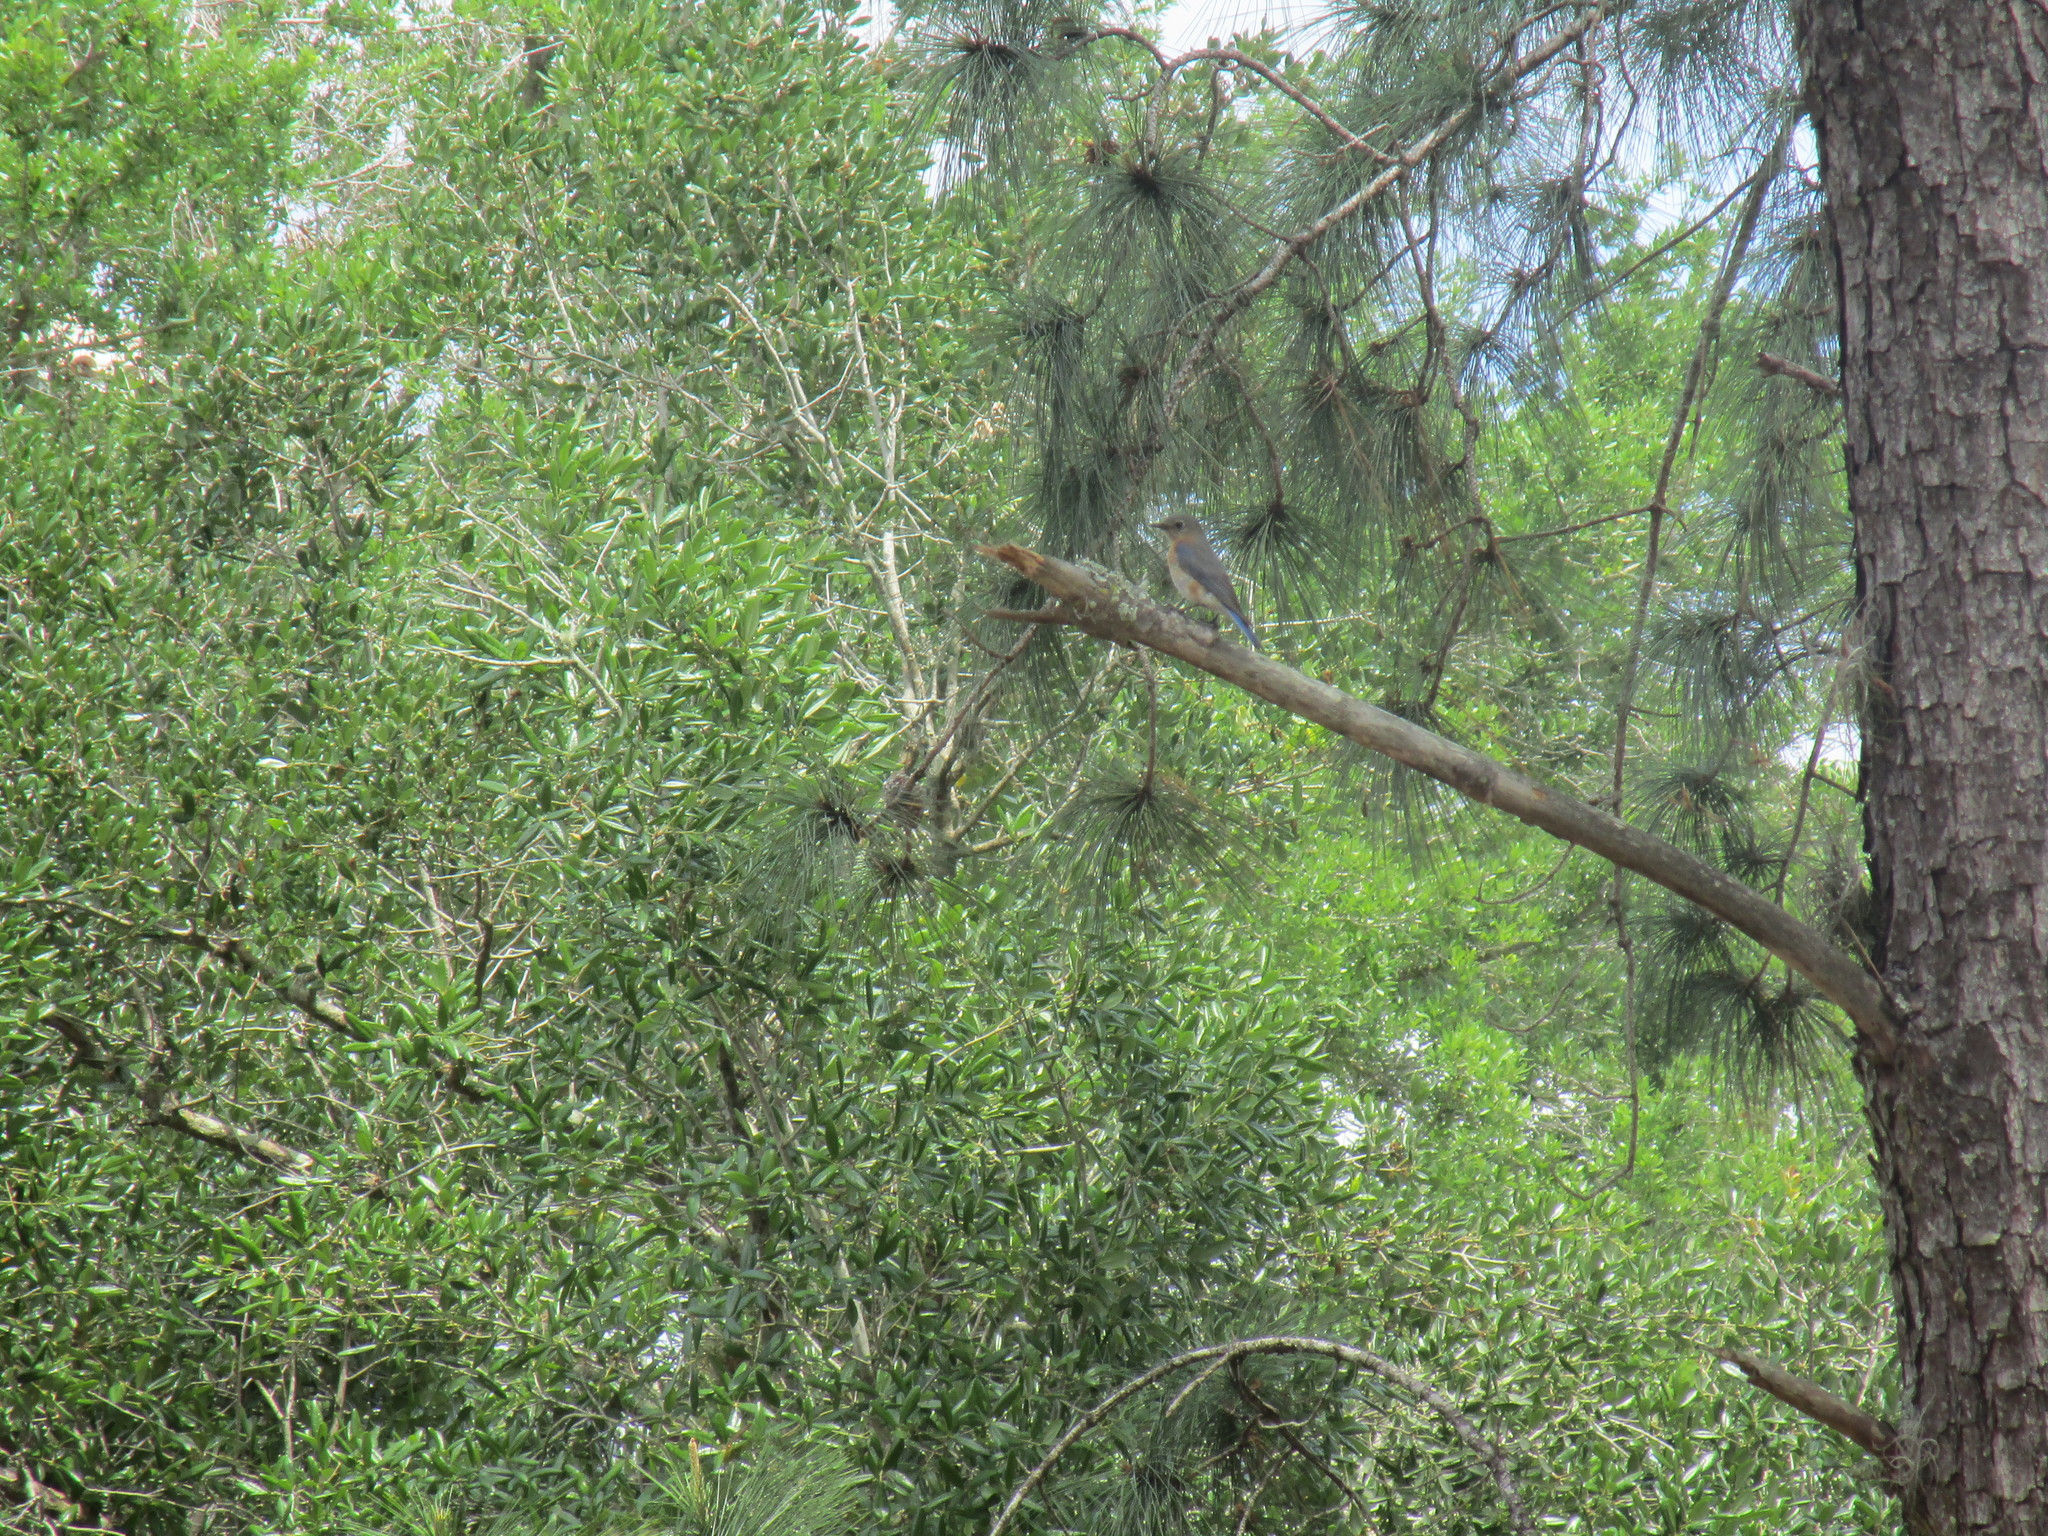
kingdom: Animalia
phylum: Chordata
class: Aves
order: Passeriformes
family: Turdidae
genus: Sialia
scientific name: Sialia sialis
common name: Eastern bluebird
